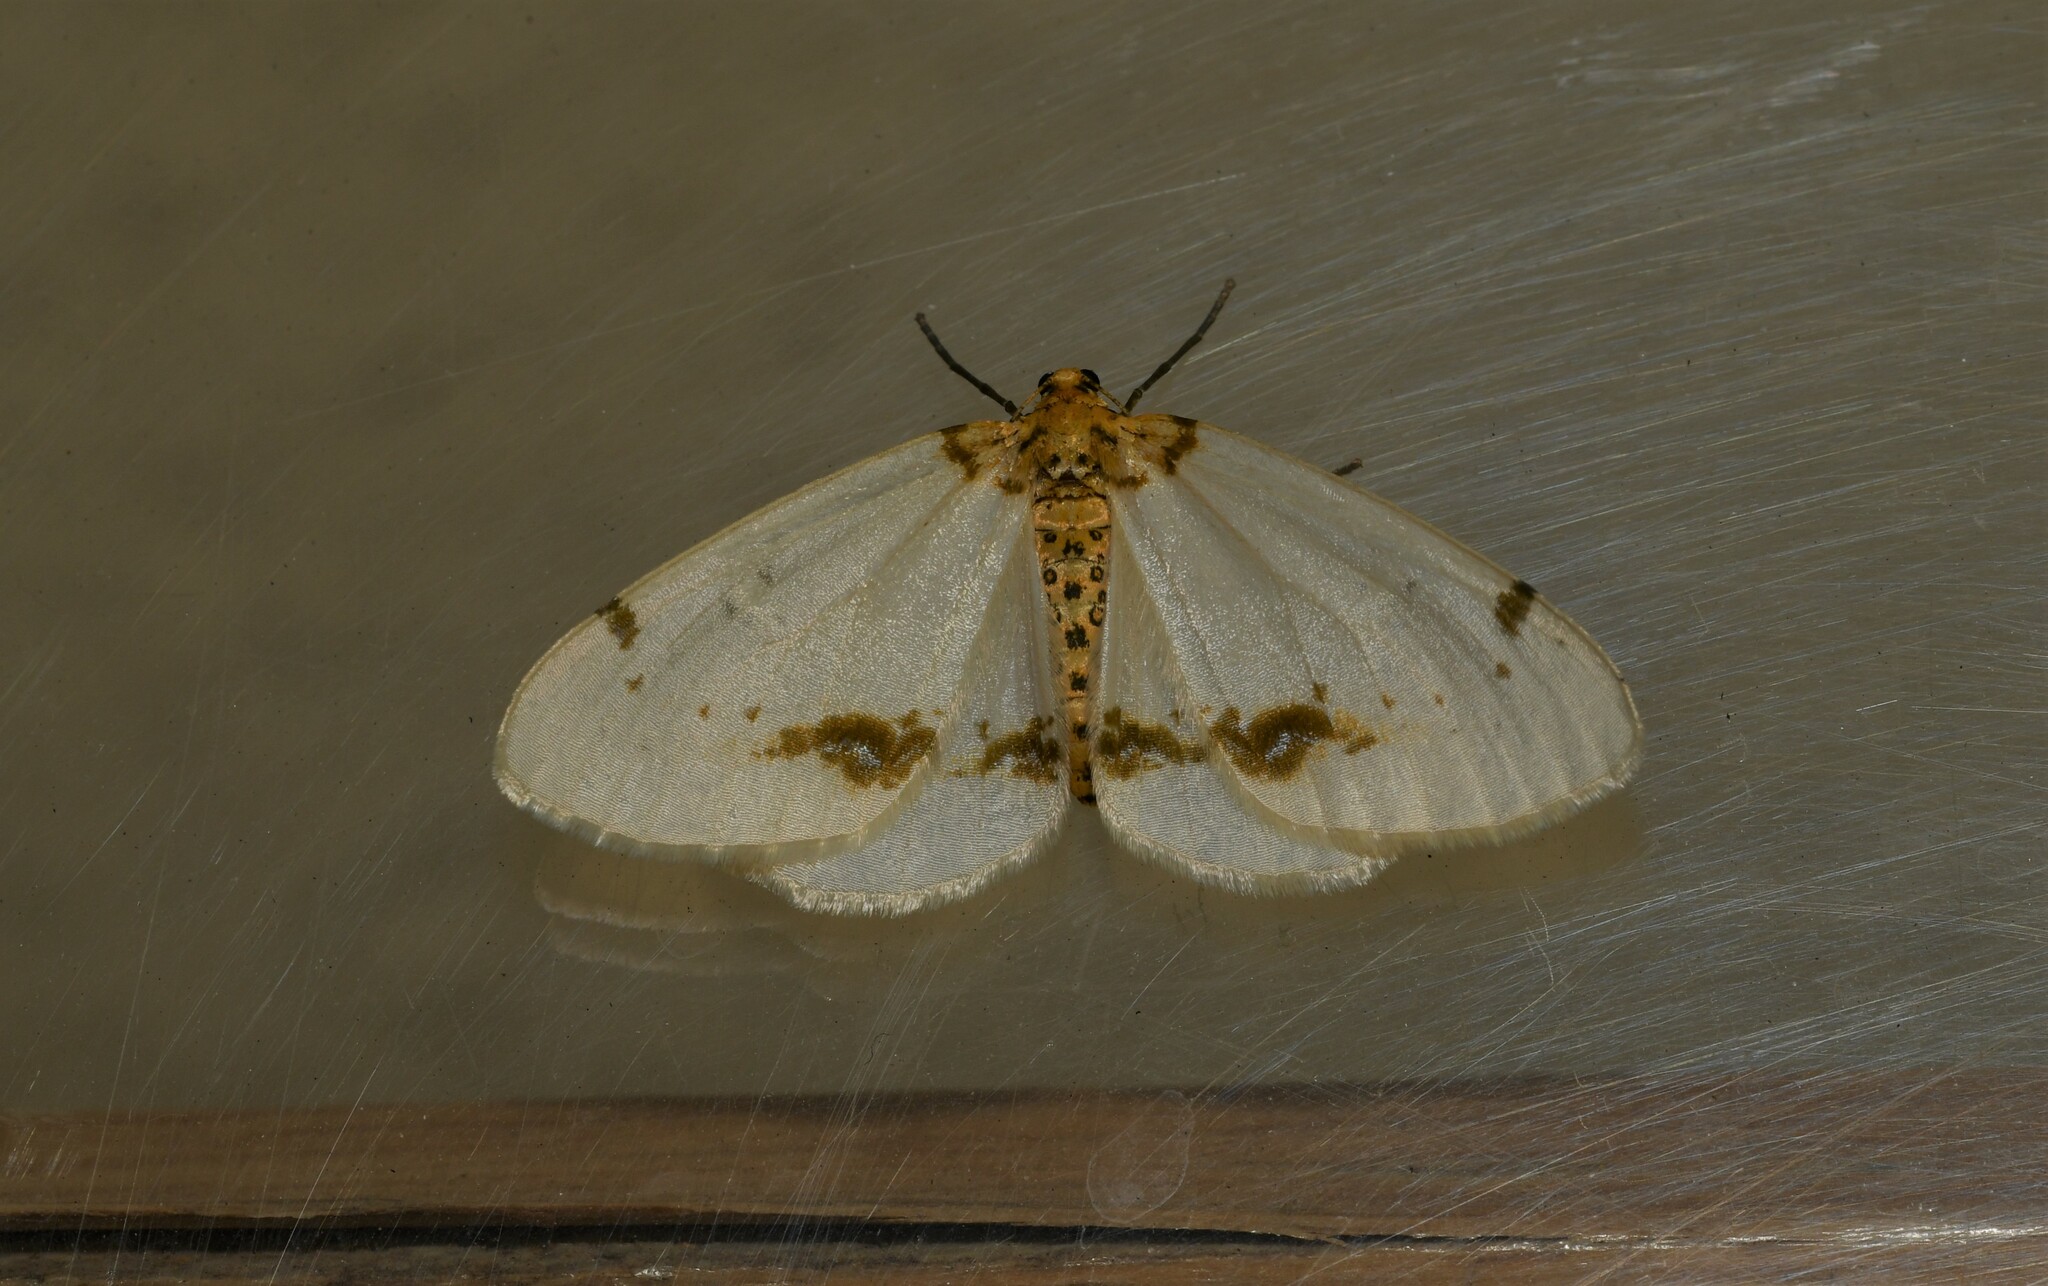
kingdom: Animalia
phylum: Arthropoda
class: Insecta
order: Lepidoptera
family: Geometridae
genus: Abraxas
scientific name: Abraxas pantaria
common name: Light magpie
